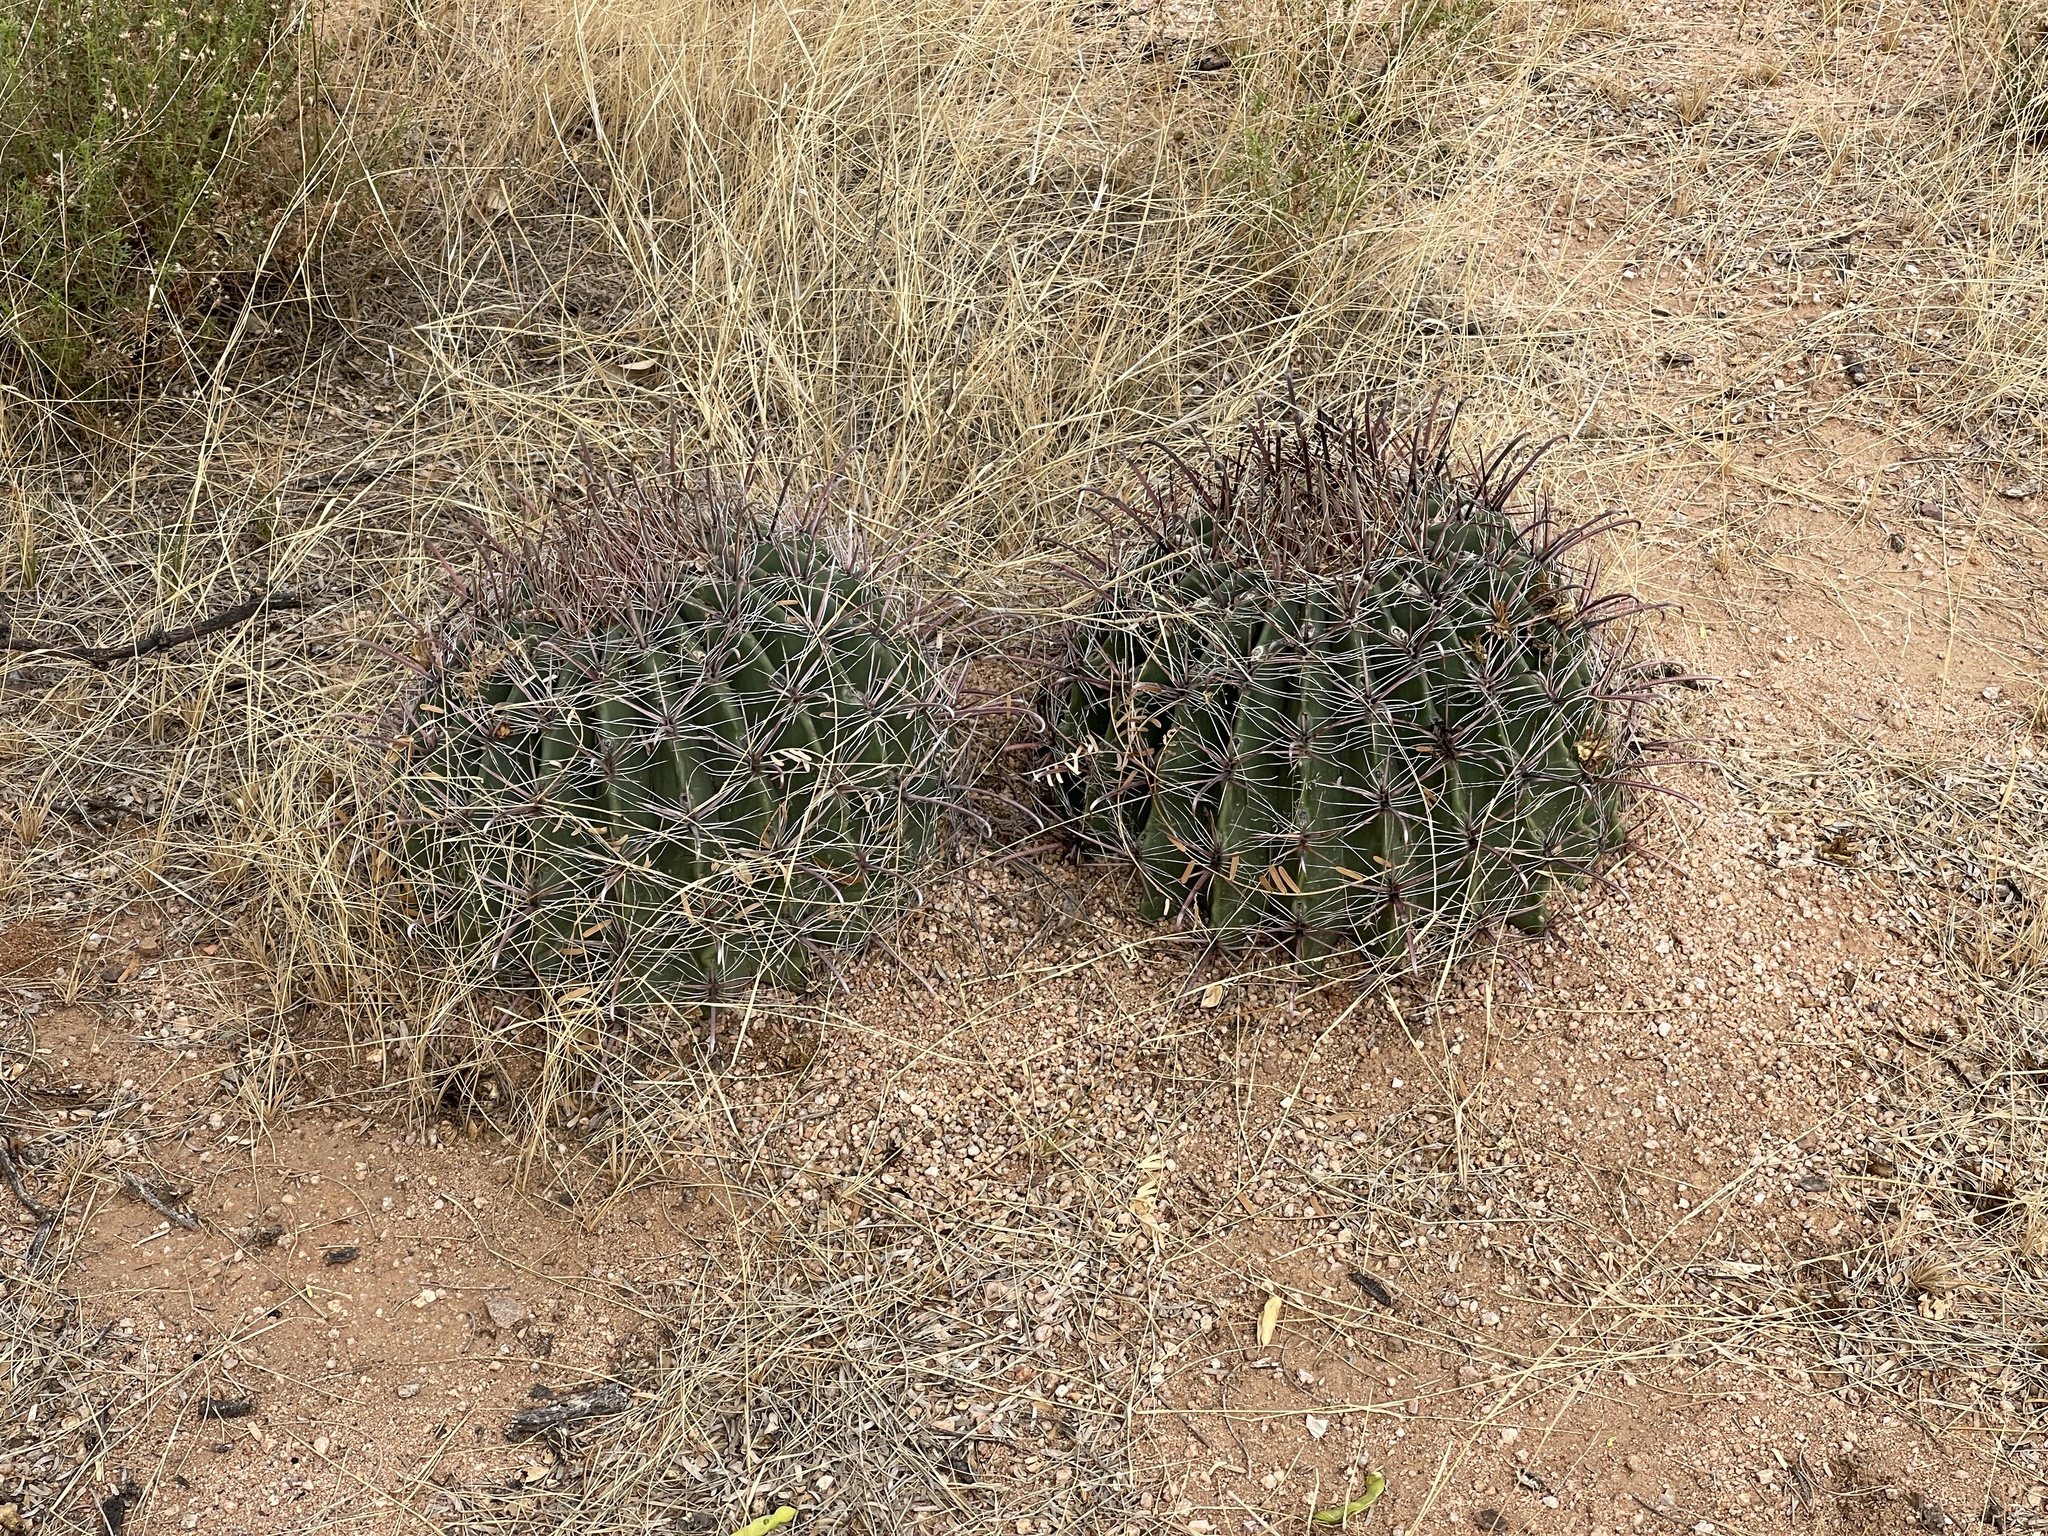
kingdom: Plantae
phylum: Tracheophyta
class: Magnoliopsida
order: Caryophyllales
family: Cactaceae
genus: Ferocactus
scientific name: Ferocactus wislizeni
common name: Candy barrel cactus
